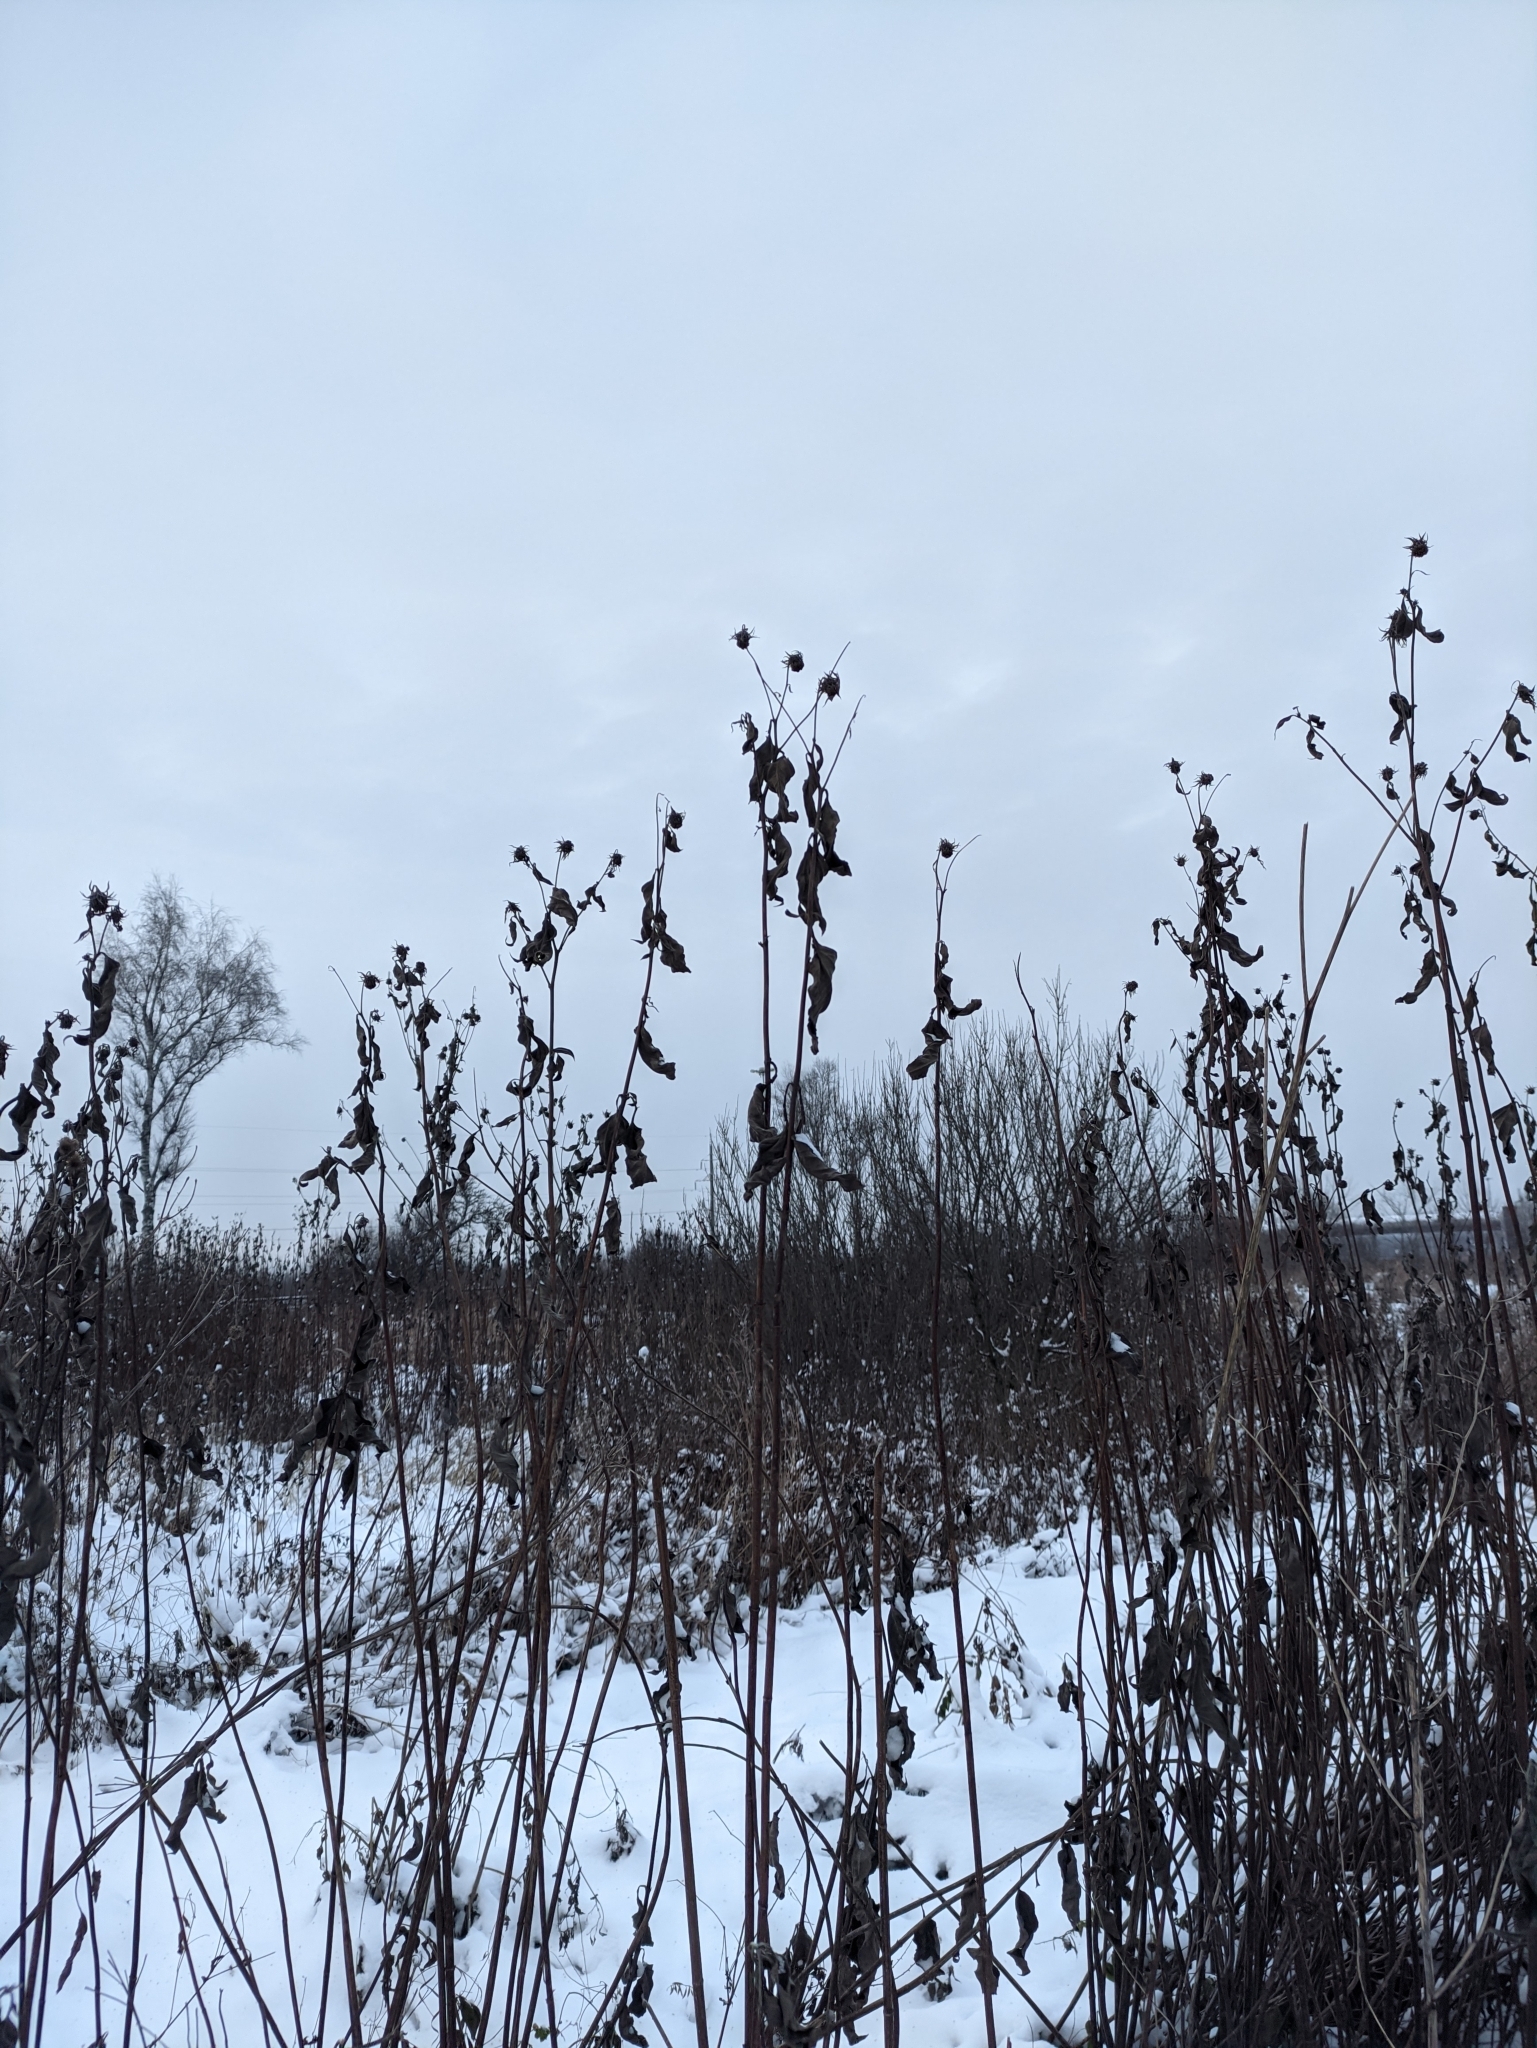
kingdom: Plantae
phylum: Tracheophyta
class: Magnoliopsida
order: Asterales
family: Asteraceae
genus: Inula
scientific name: Inula helenium
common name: Elecampane
